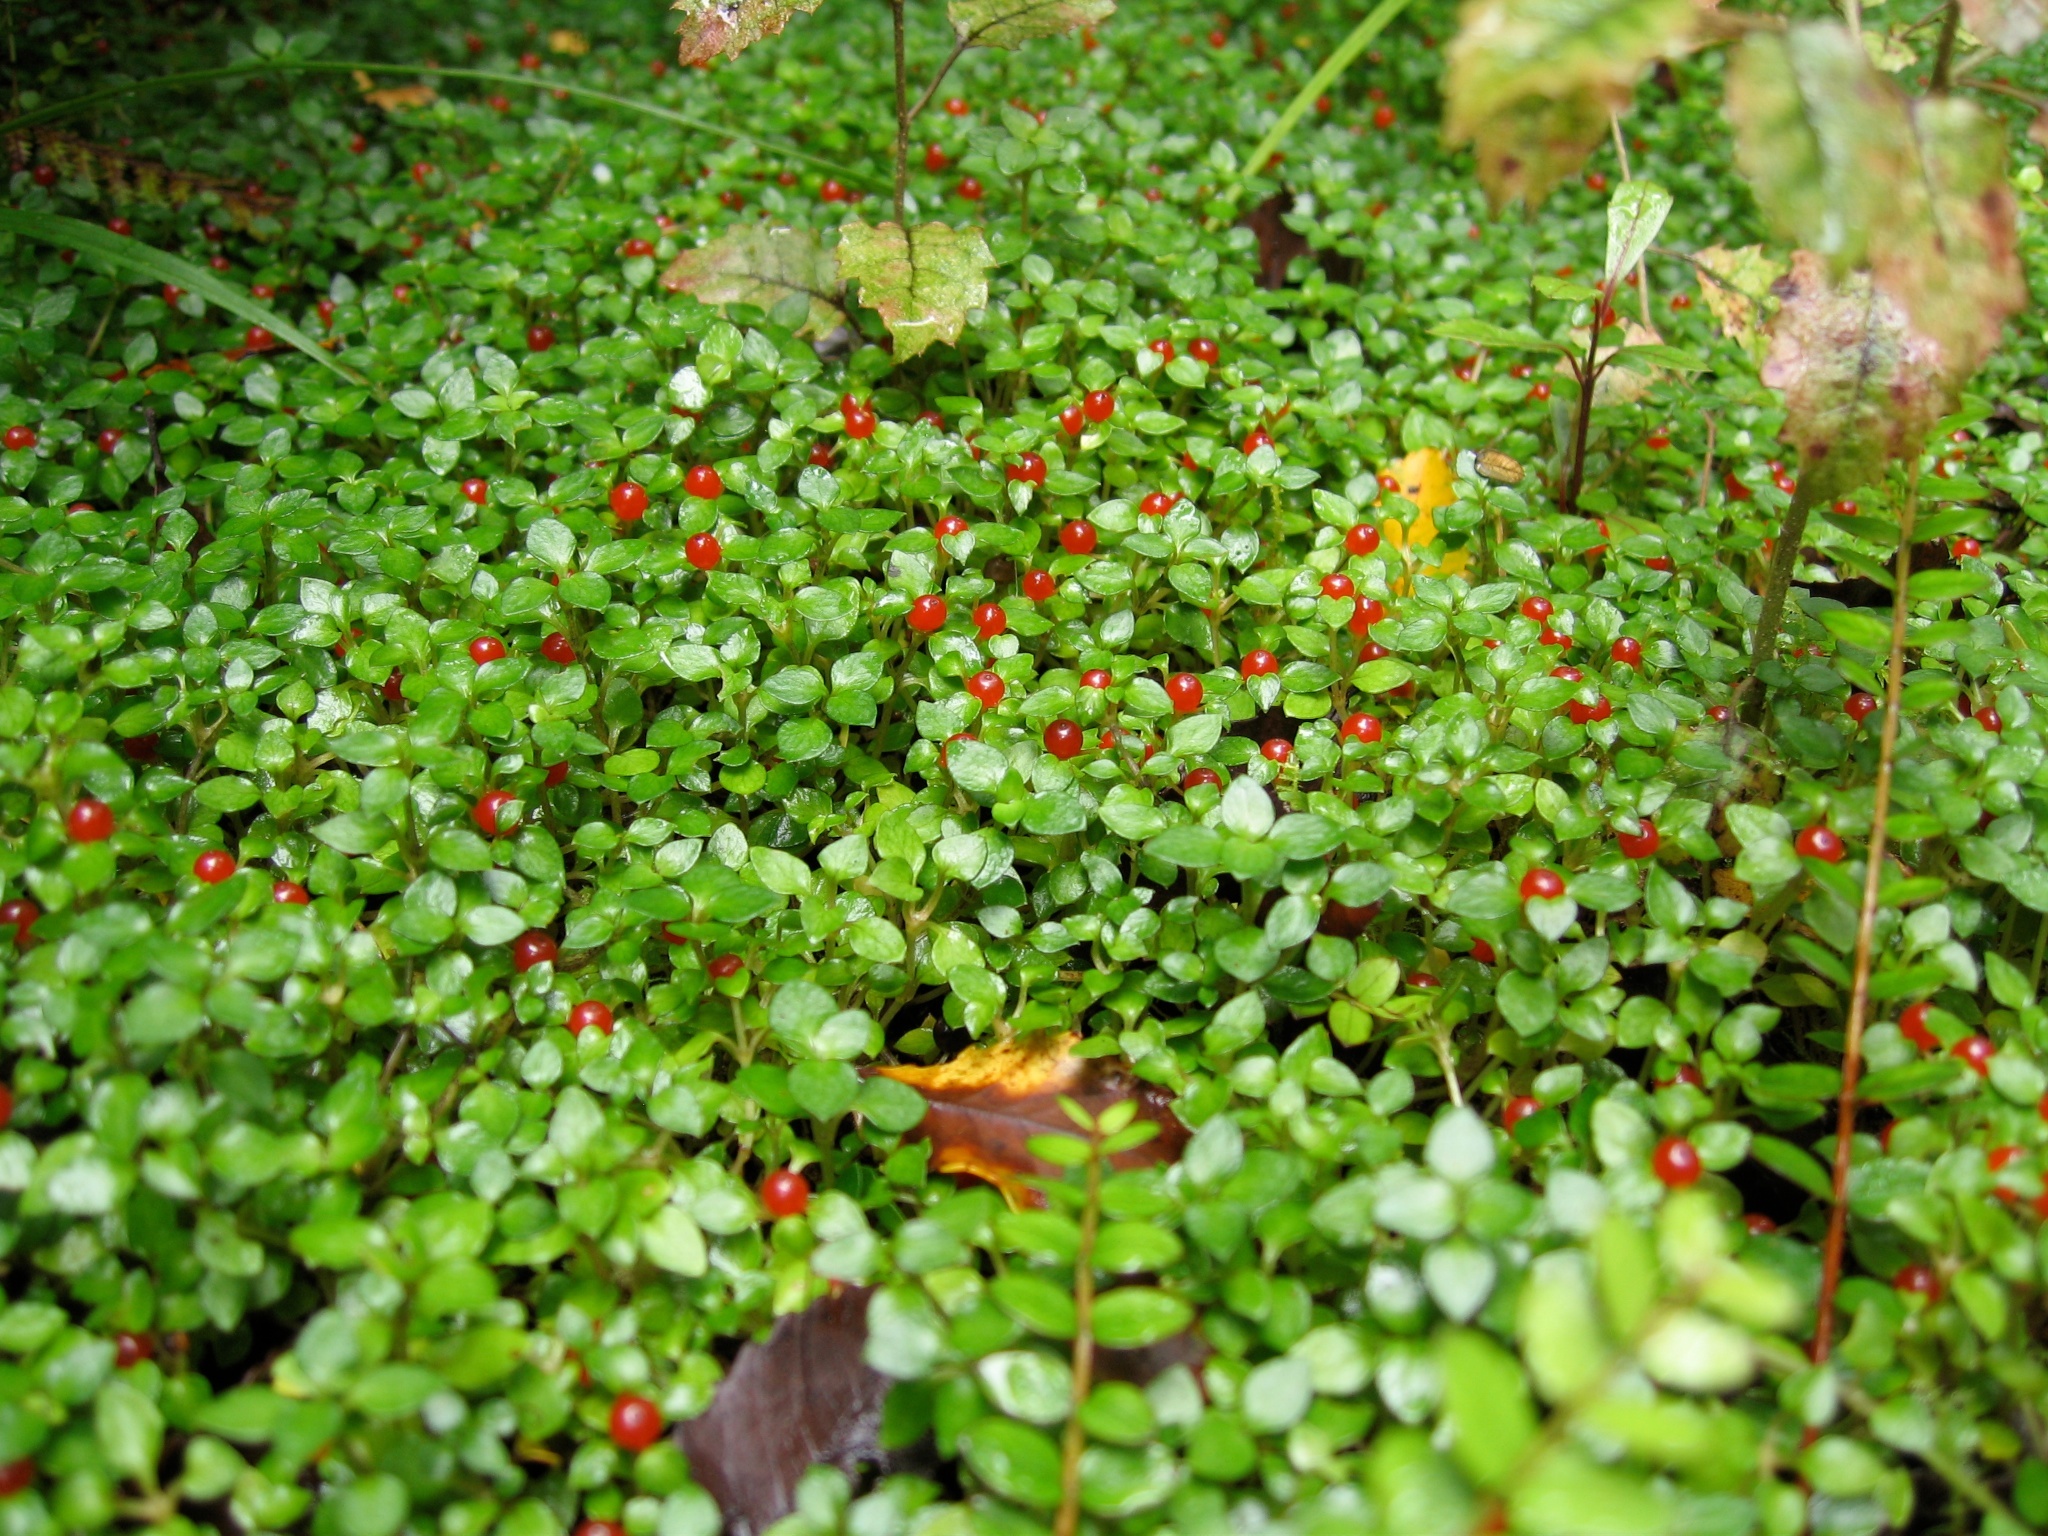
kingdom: Plantae
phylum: Tracheophyta
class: Magnoliopsida
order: Gentianales
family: Rubiaceae
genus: Nertera
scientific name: Nertera granadensis
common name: Beadplant
